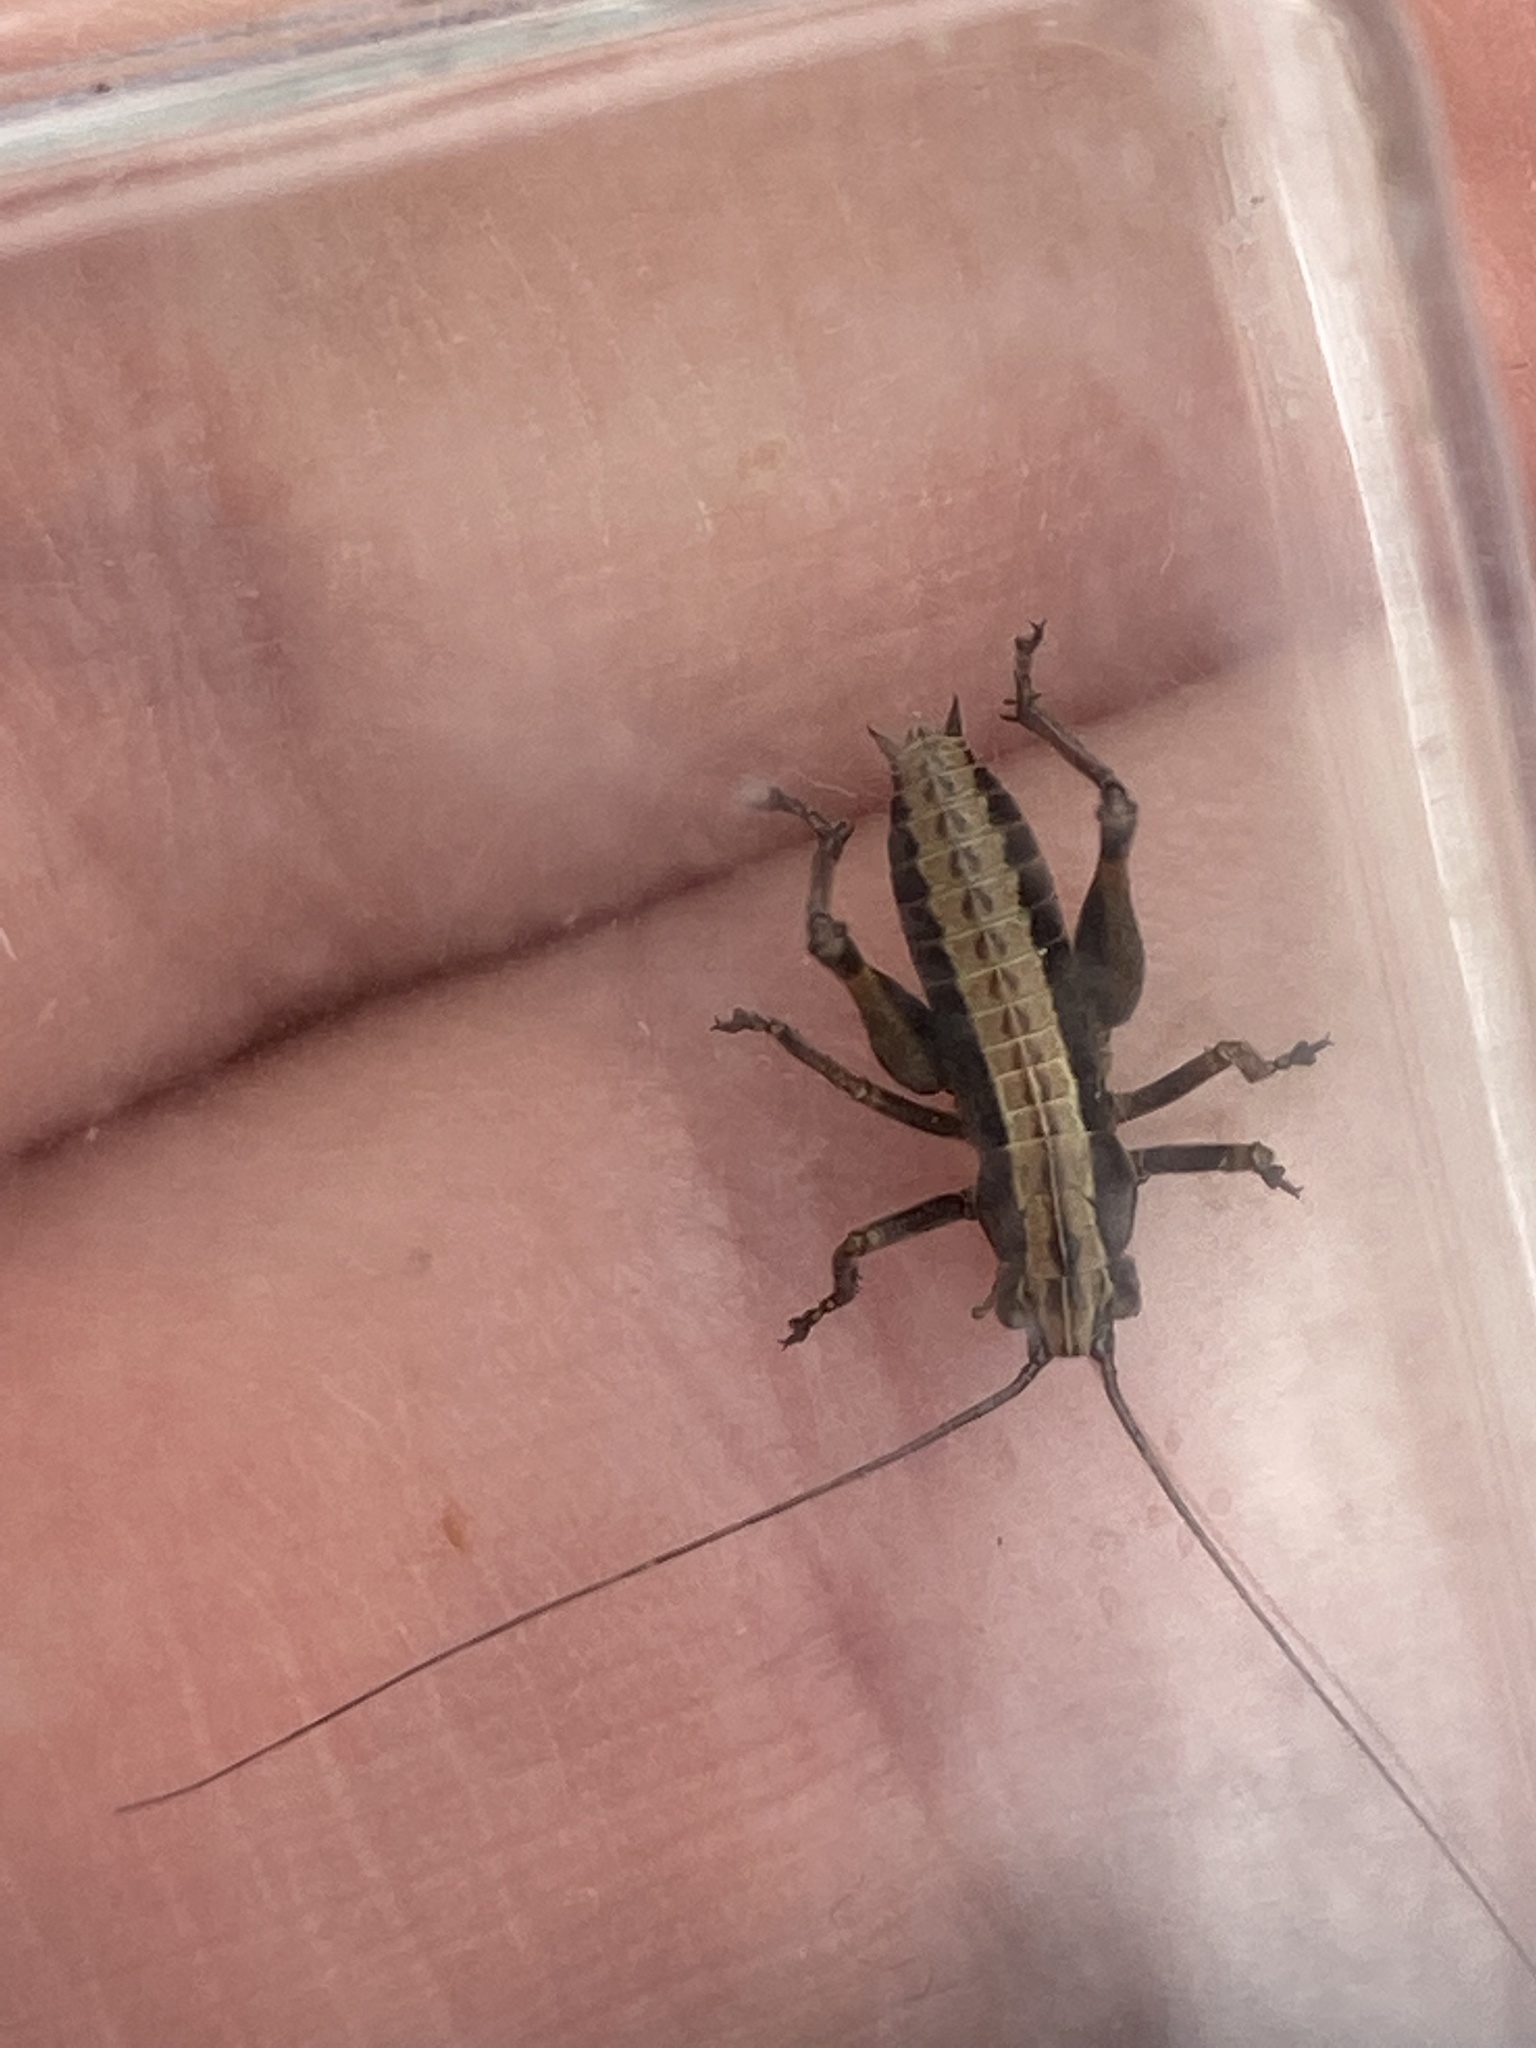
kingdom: Animalia
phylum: Arthropoda
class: Insecta
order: Orthoptera
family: Tettigoniidae
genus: Pholidoptera
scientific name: Pholidoptera griseoaptera
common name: Dark bush-cricket
